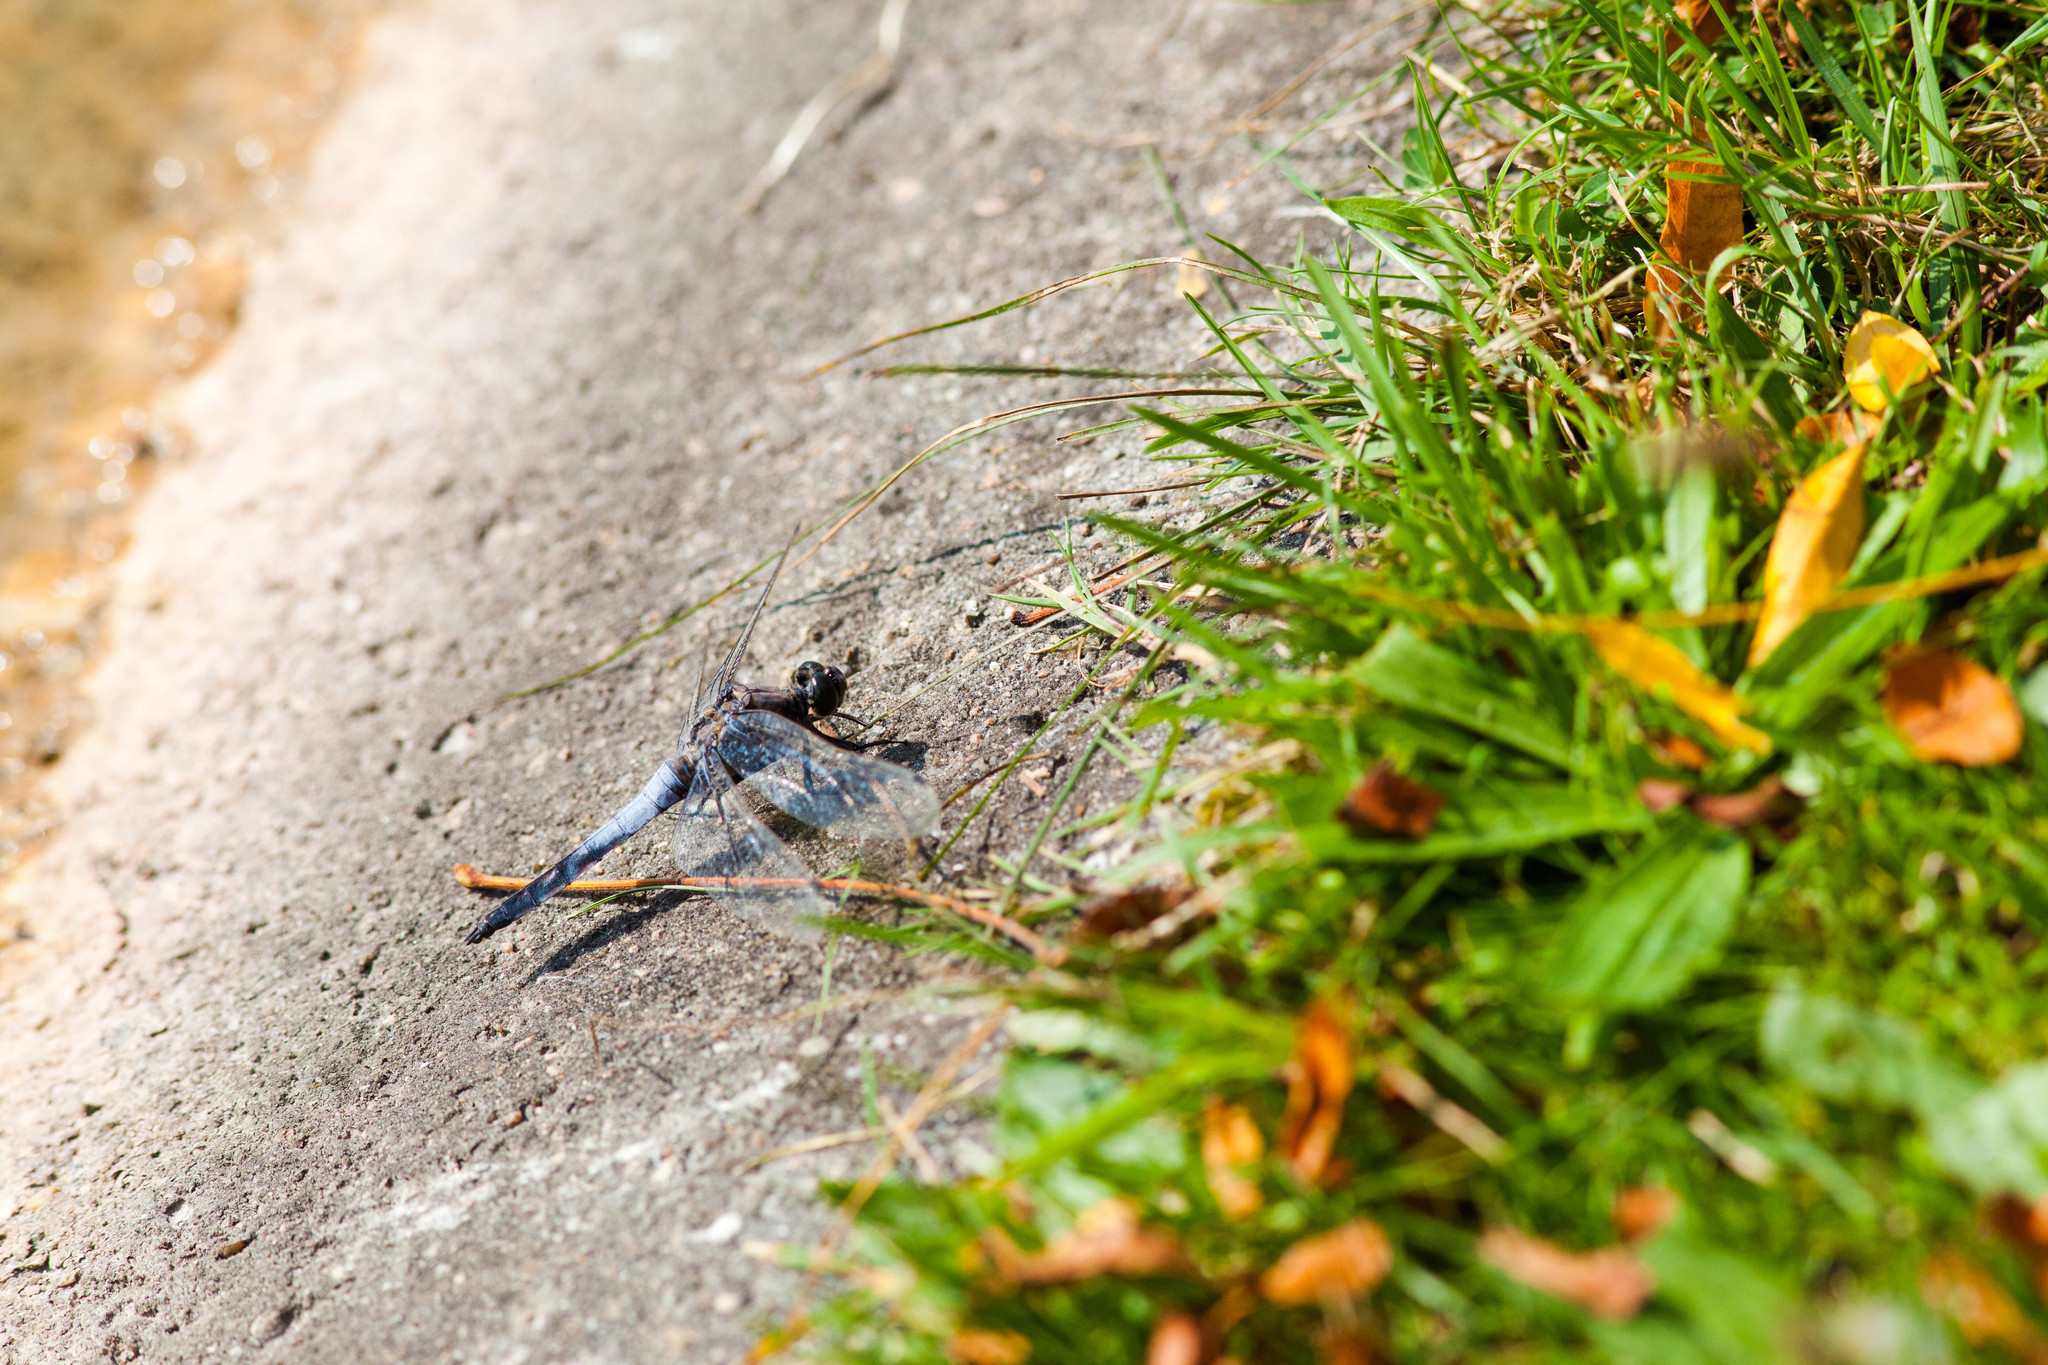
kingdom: Animalia
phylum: Arthropoda
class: Insecta
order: Odonata
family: Libellulidae
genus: Orthetrum
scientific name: Orthetrum cancellatum
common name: Black-tailed skimmer
